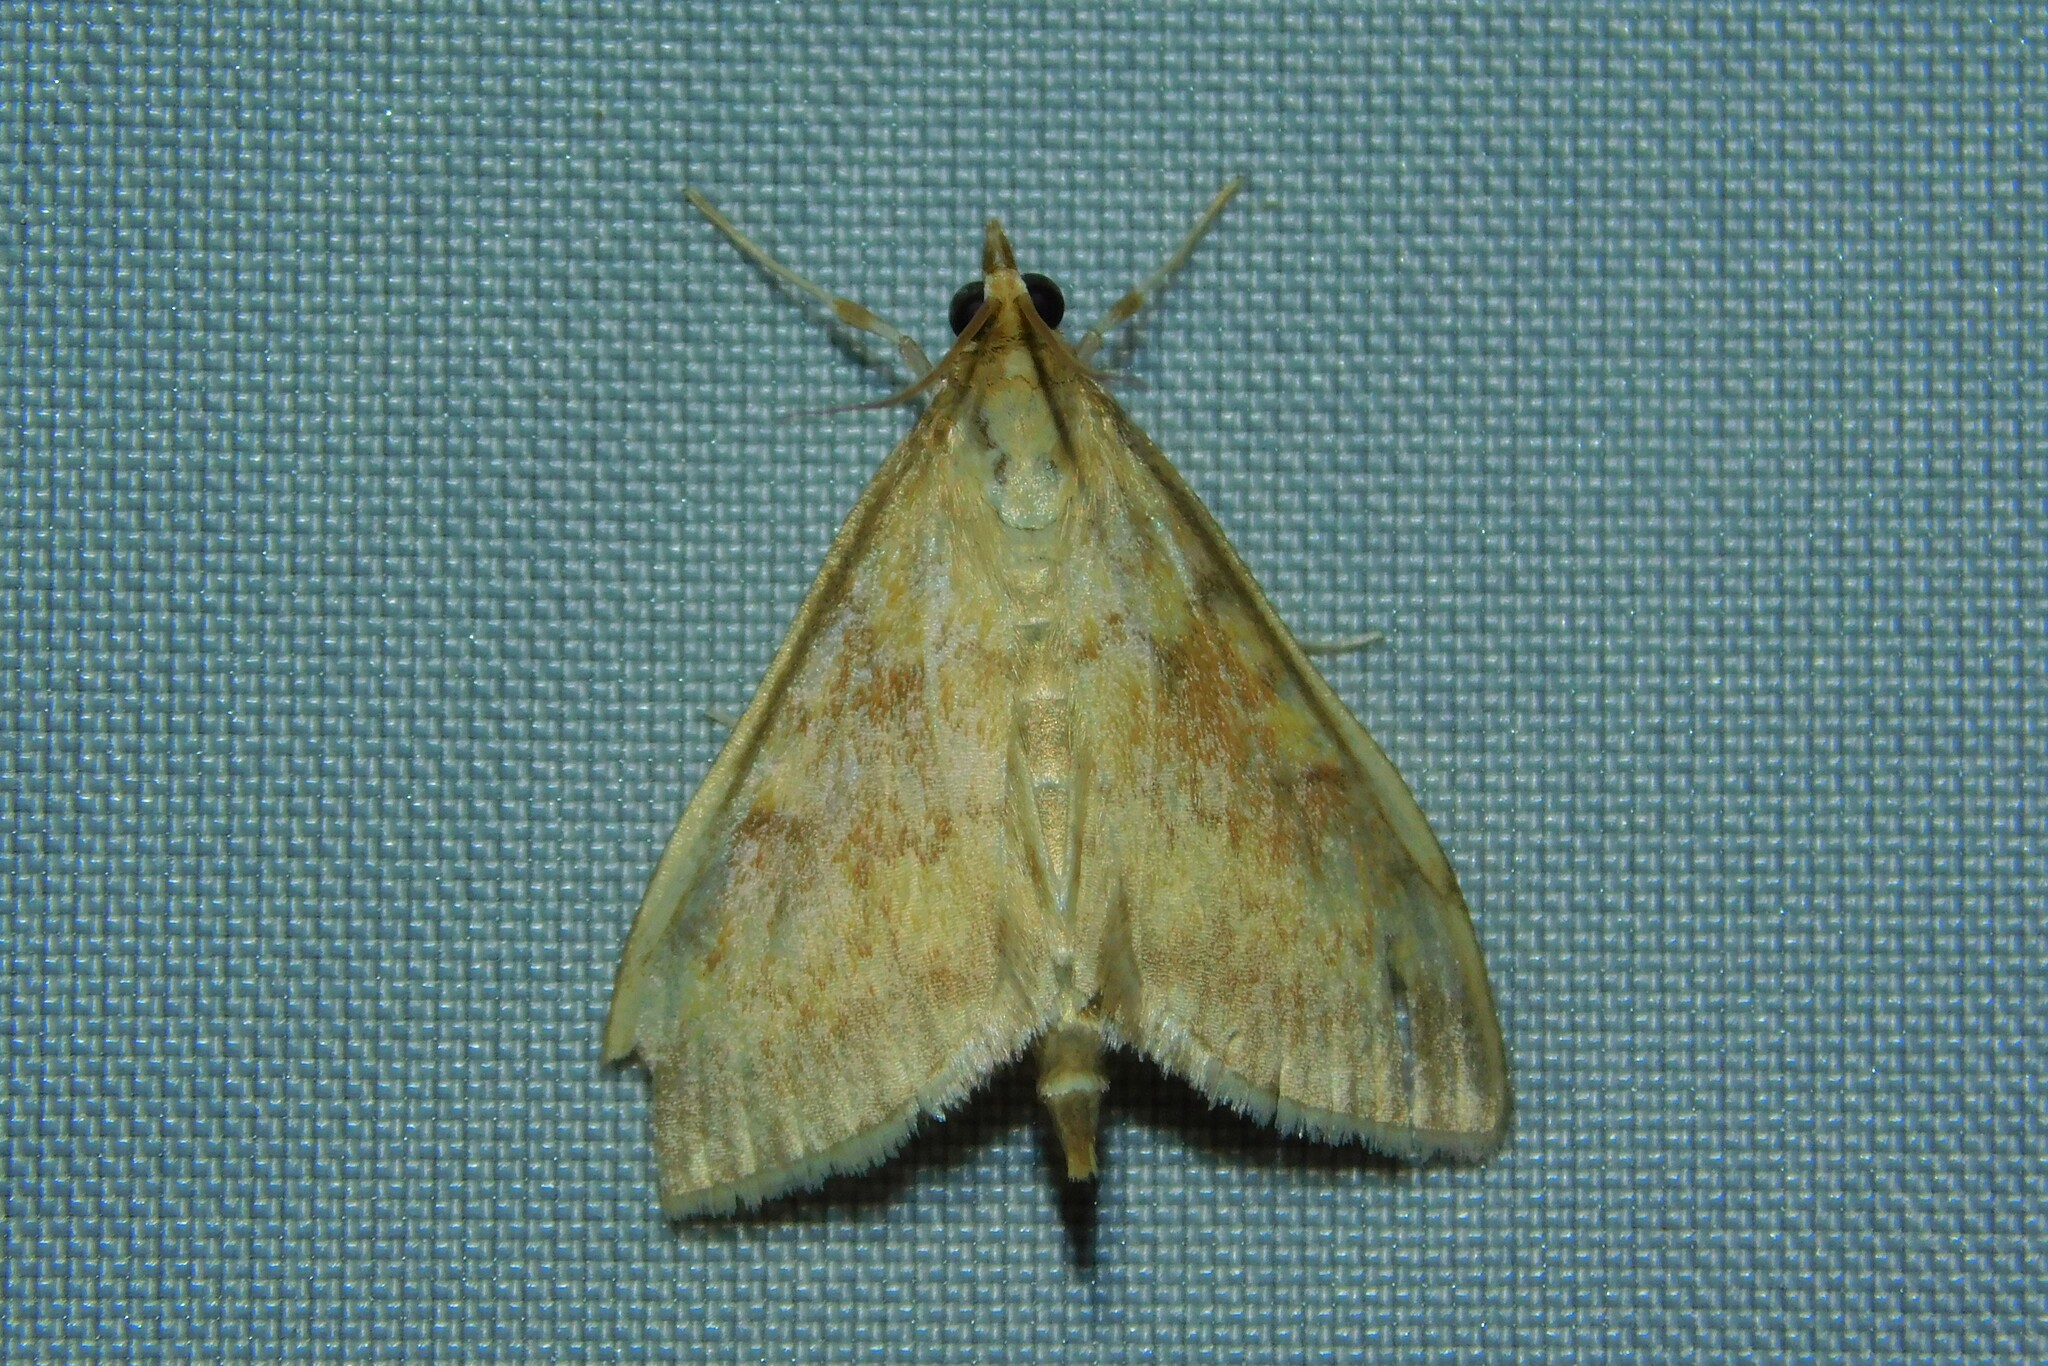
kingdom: Animalia
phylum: Arthropoda
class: Insecta
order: Lepidoptera
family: Crambidae
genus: Ostrinia
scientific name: Ostrinia nubilalis
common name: European corn borer
